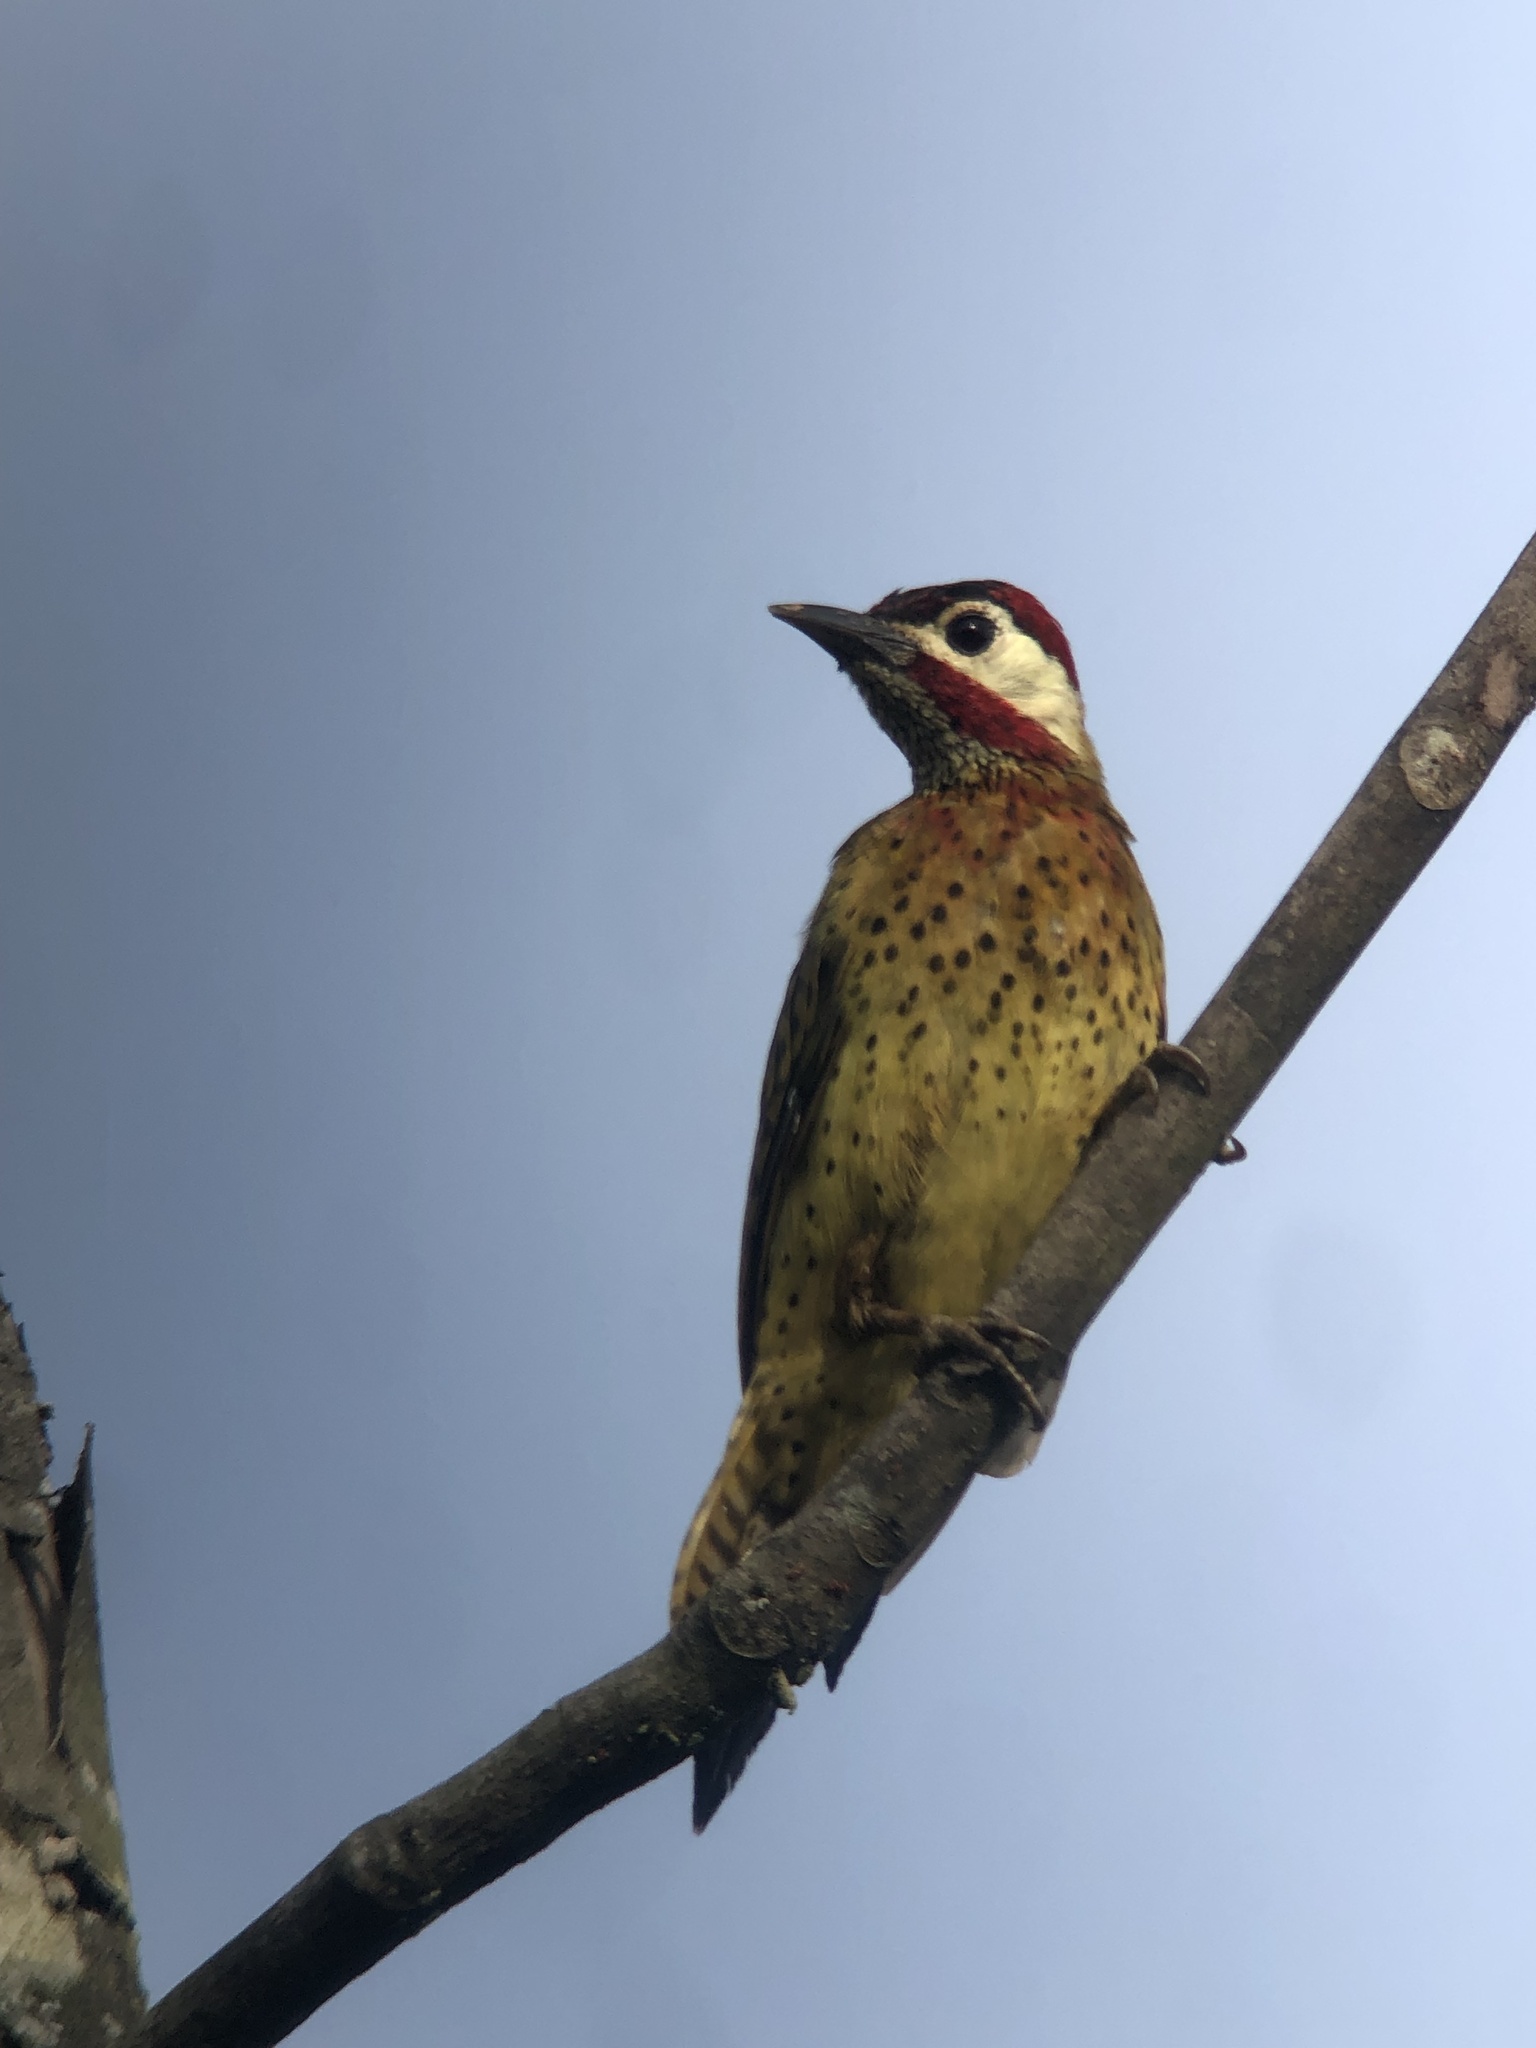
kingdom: Animalia
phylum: Chordata
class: Aves
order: Piciformes
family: Picidae
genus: Colaptes
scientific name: Colaptes punctigula
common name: Spot-breasted woodpecker
